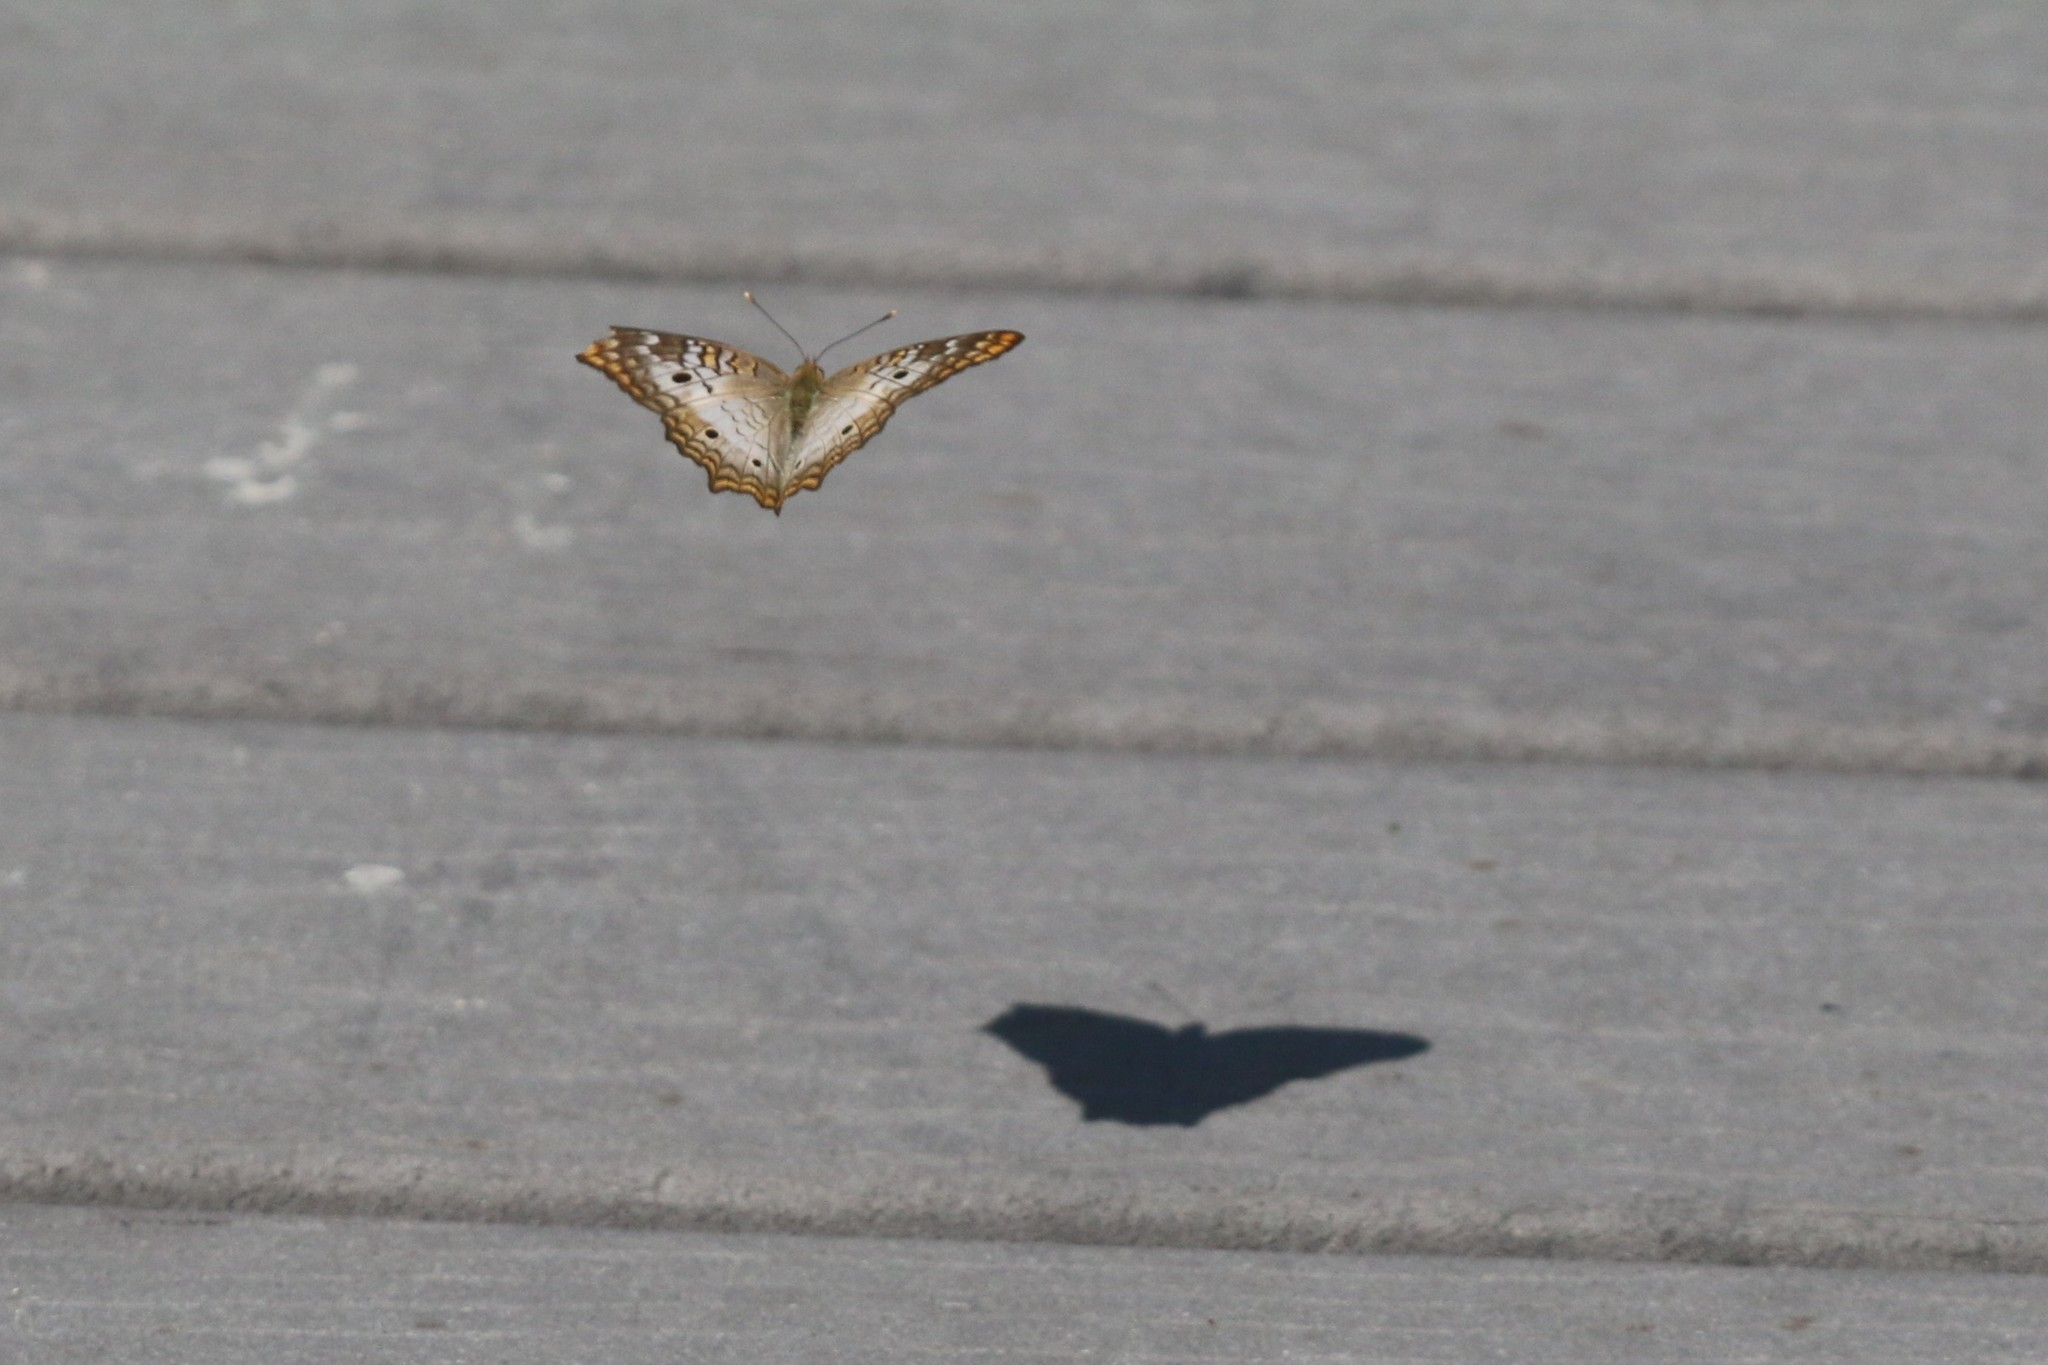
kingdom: Animalia
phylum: Arthropoda
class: Insecta
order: Lepidoptera
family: Nymphalidae
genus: Anartia
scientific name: Anartia jatrophae
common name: White peacock
